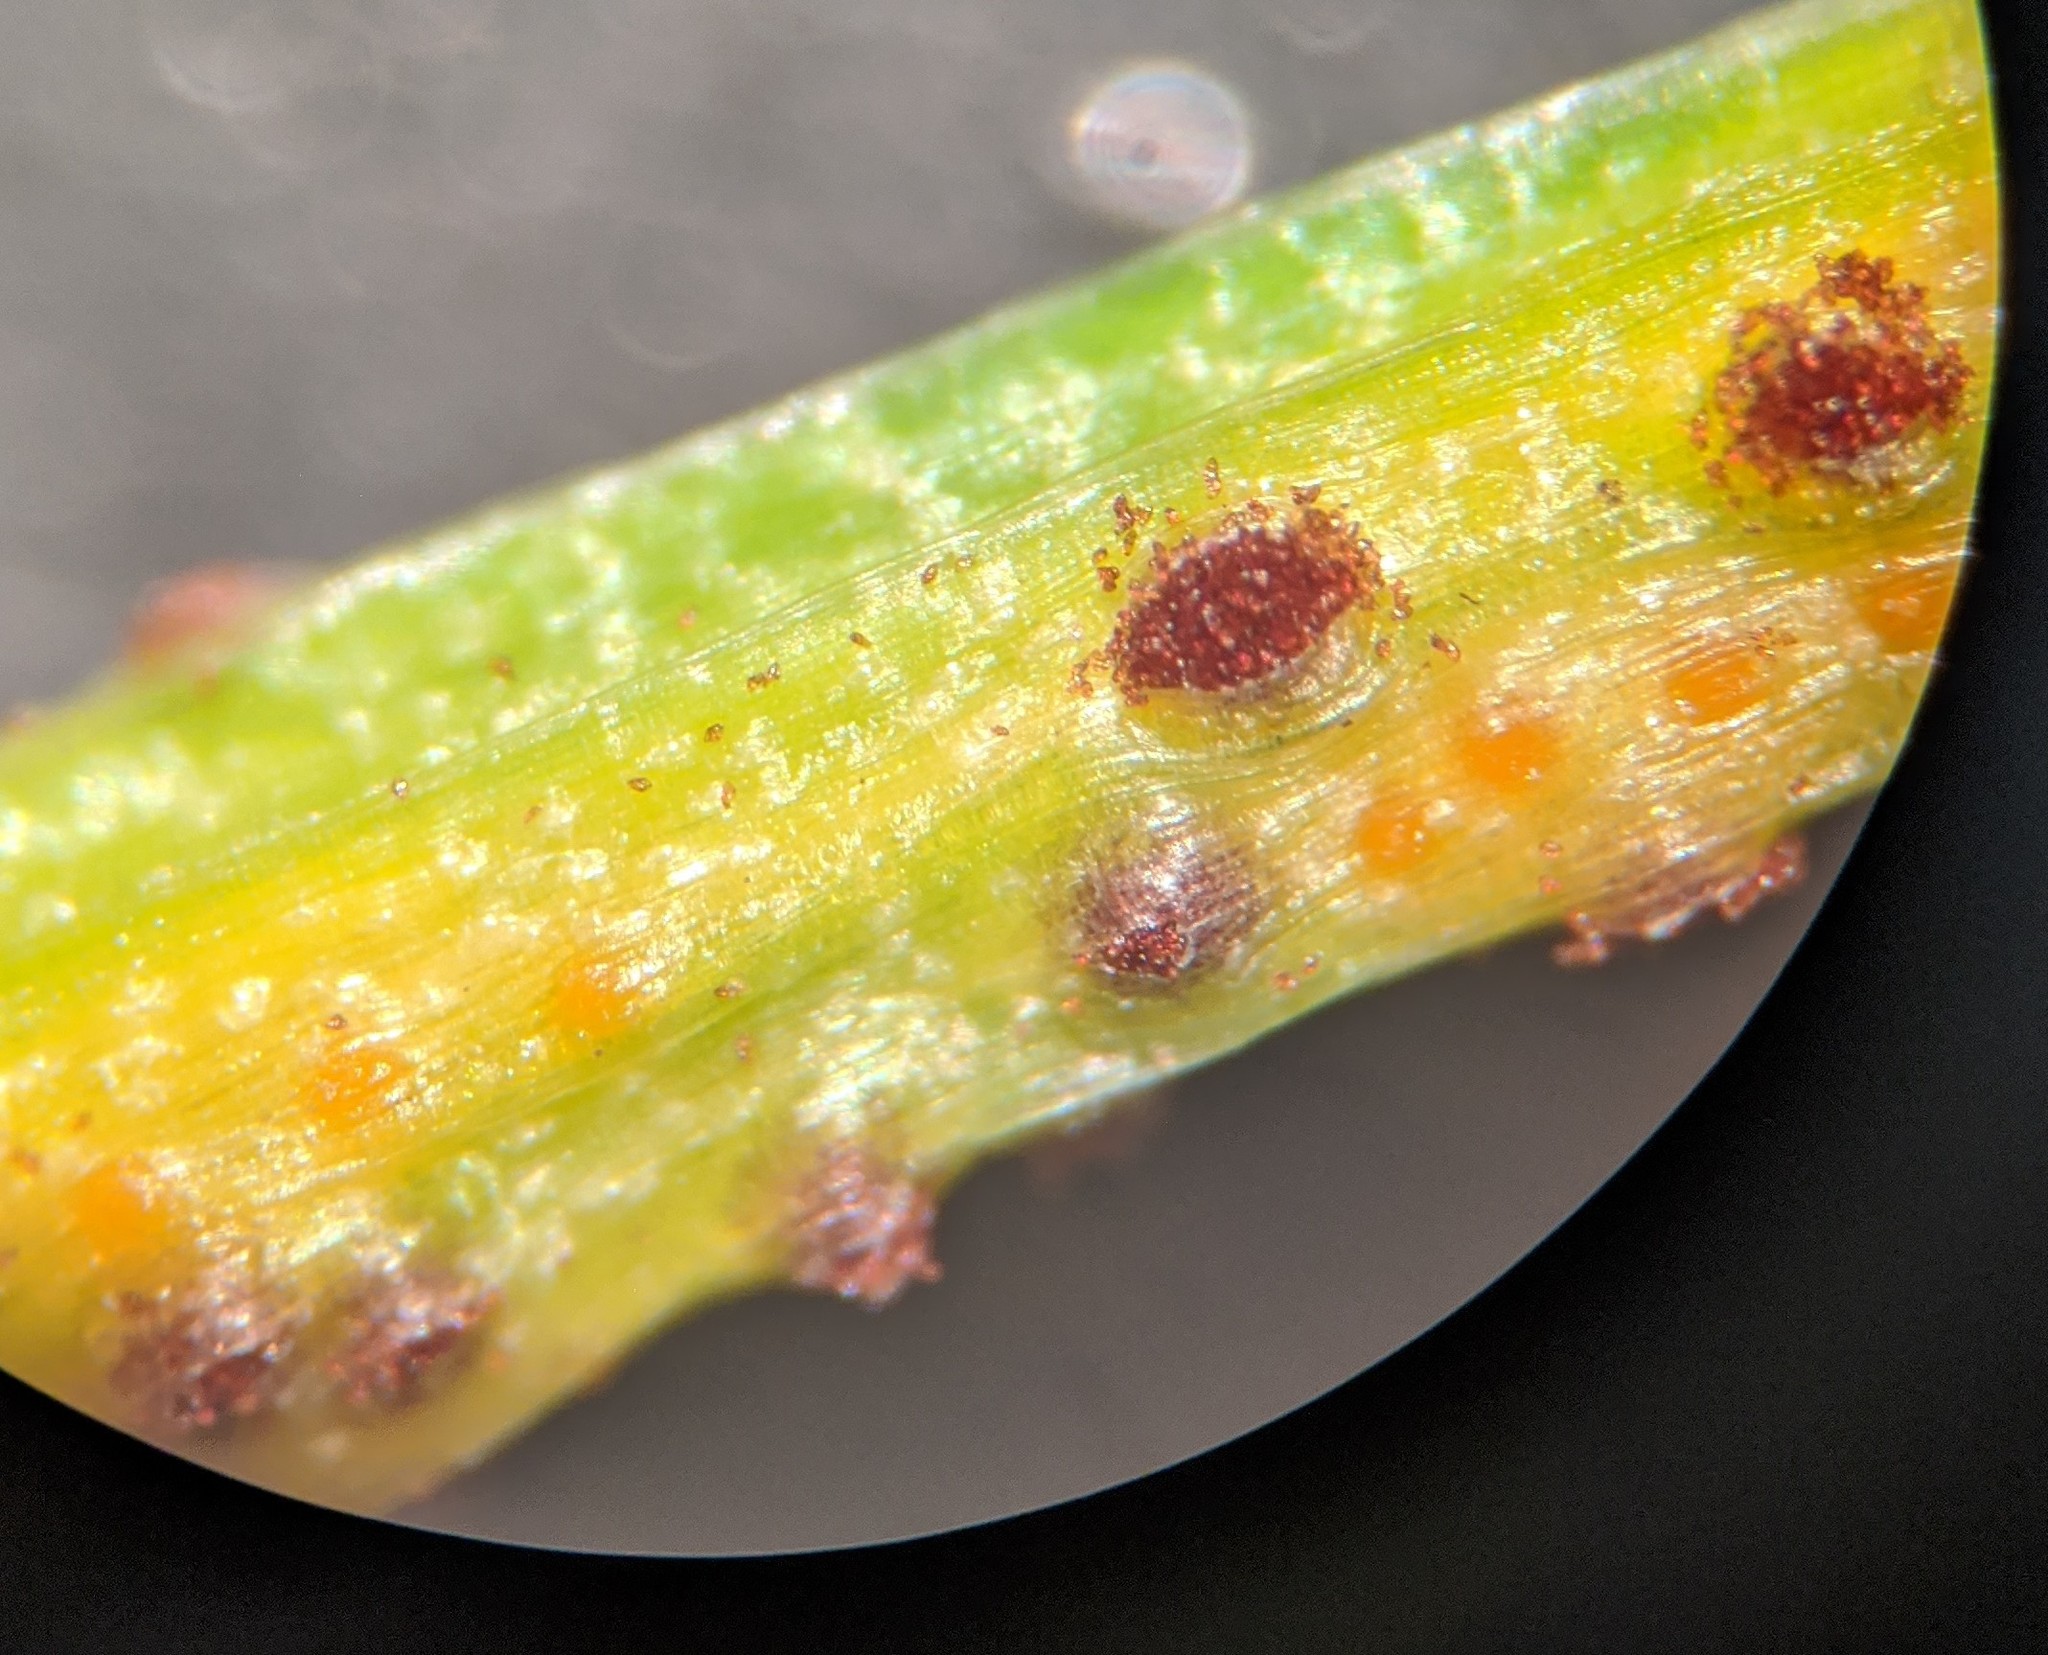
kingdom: Fungi
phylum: Basidiomycota
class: Pucciniomycetes
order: Pucciniales
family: Pucciniaceae
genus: Puccinia
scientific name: Puccinia liliacearum
